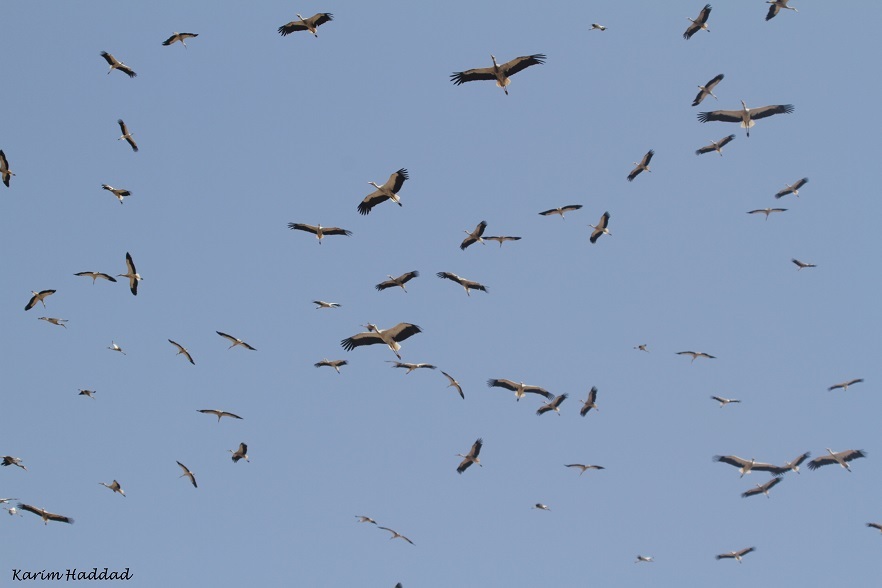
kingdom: Animalia
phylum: Chordata
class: Aves
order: Ciconiiformes
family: Ciconiidae
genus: Ciconia
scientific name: Ciconia ciconia
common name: White stork
